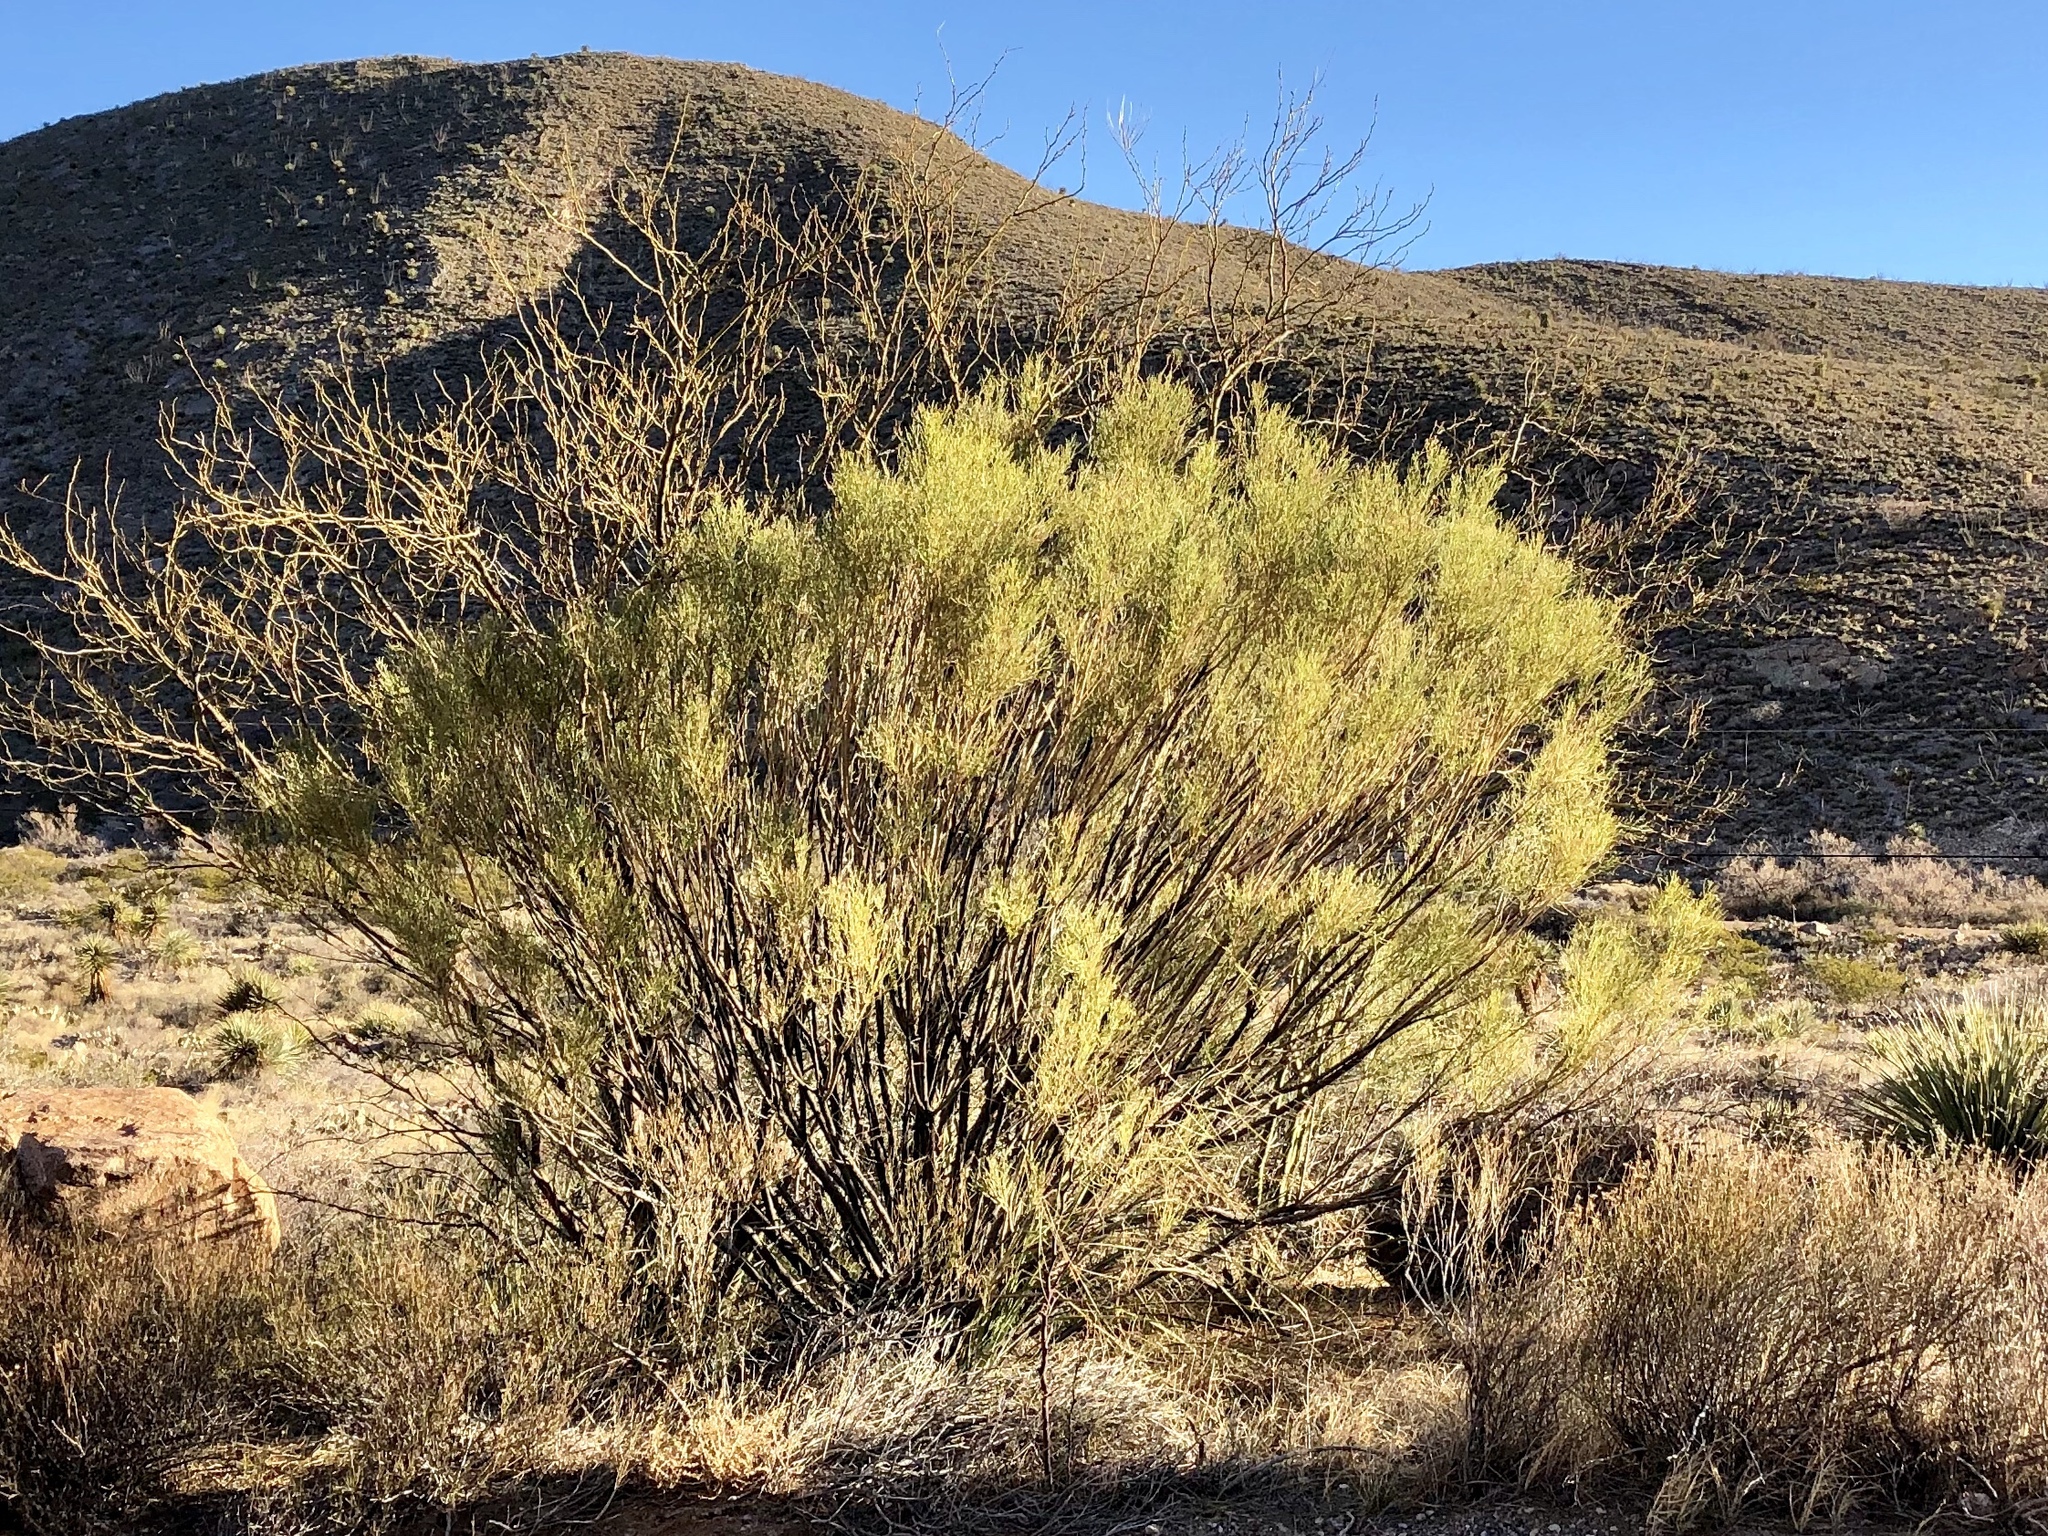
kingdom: Plantae
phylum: Tracheophyta
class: Magnoliopsida
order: Asterales
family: Asteraceae
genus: Baccharis
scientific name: Baccharis sarothroides
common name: Desert-broom
